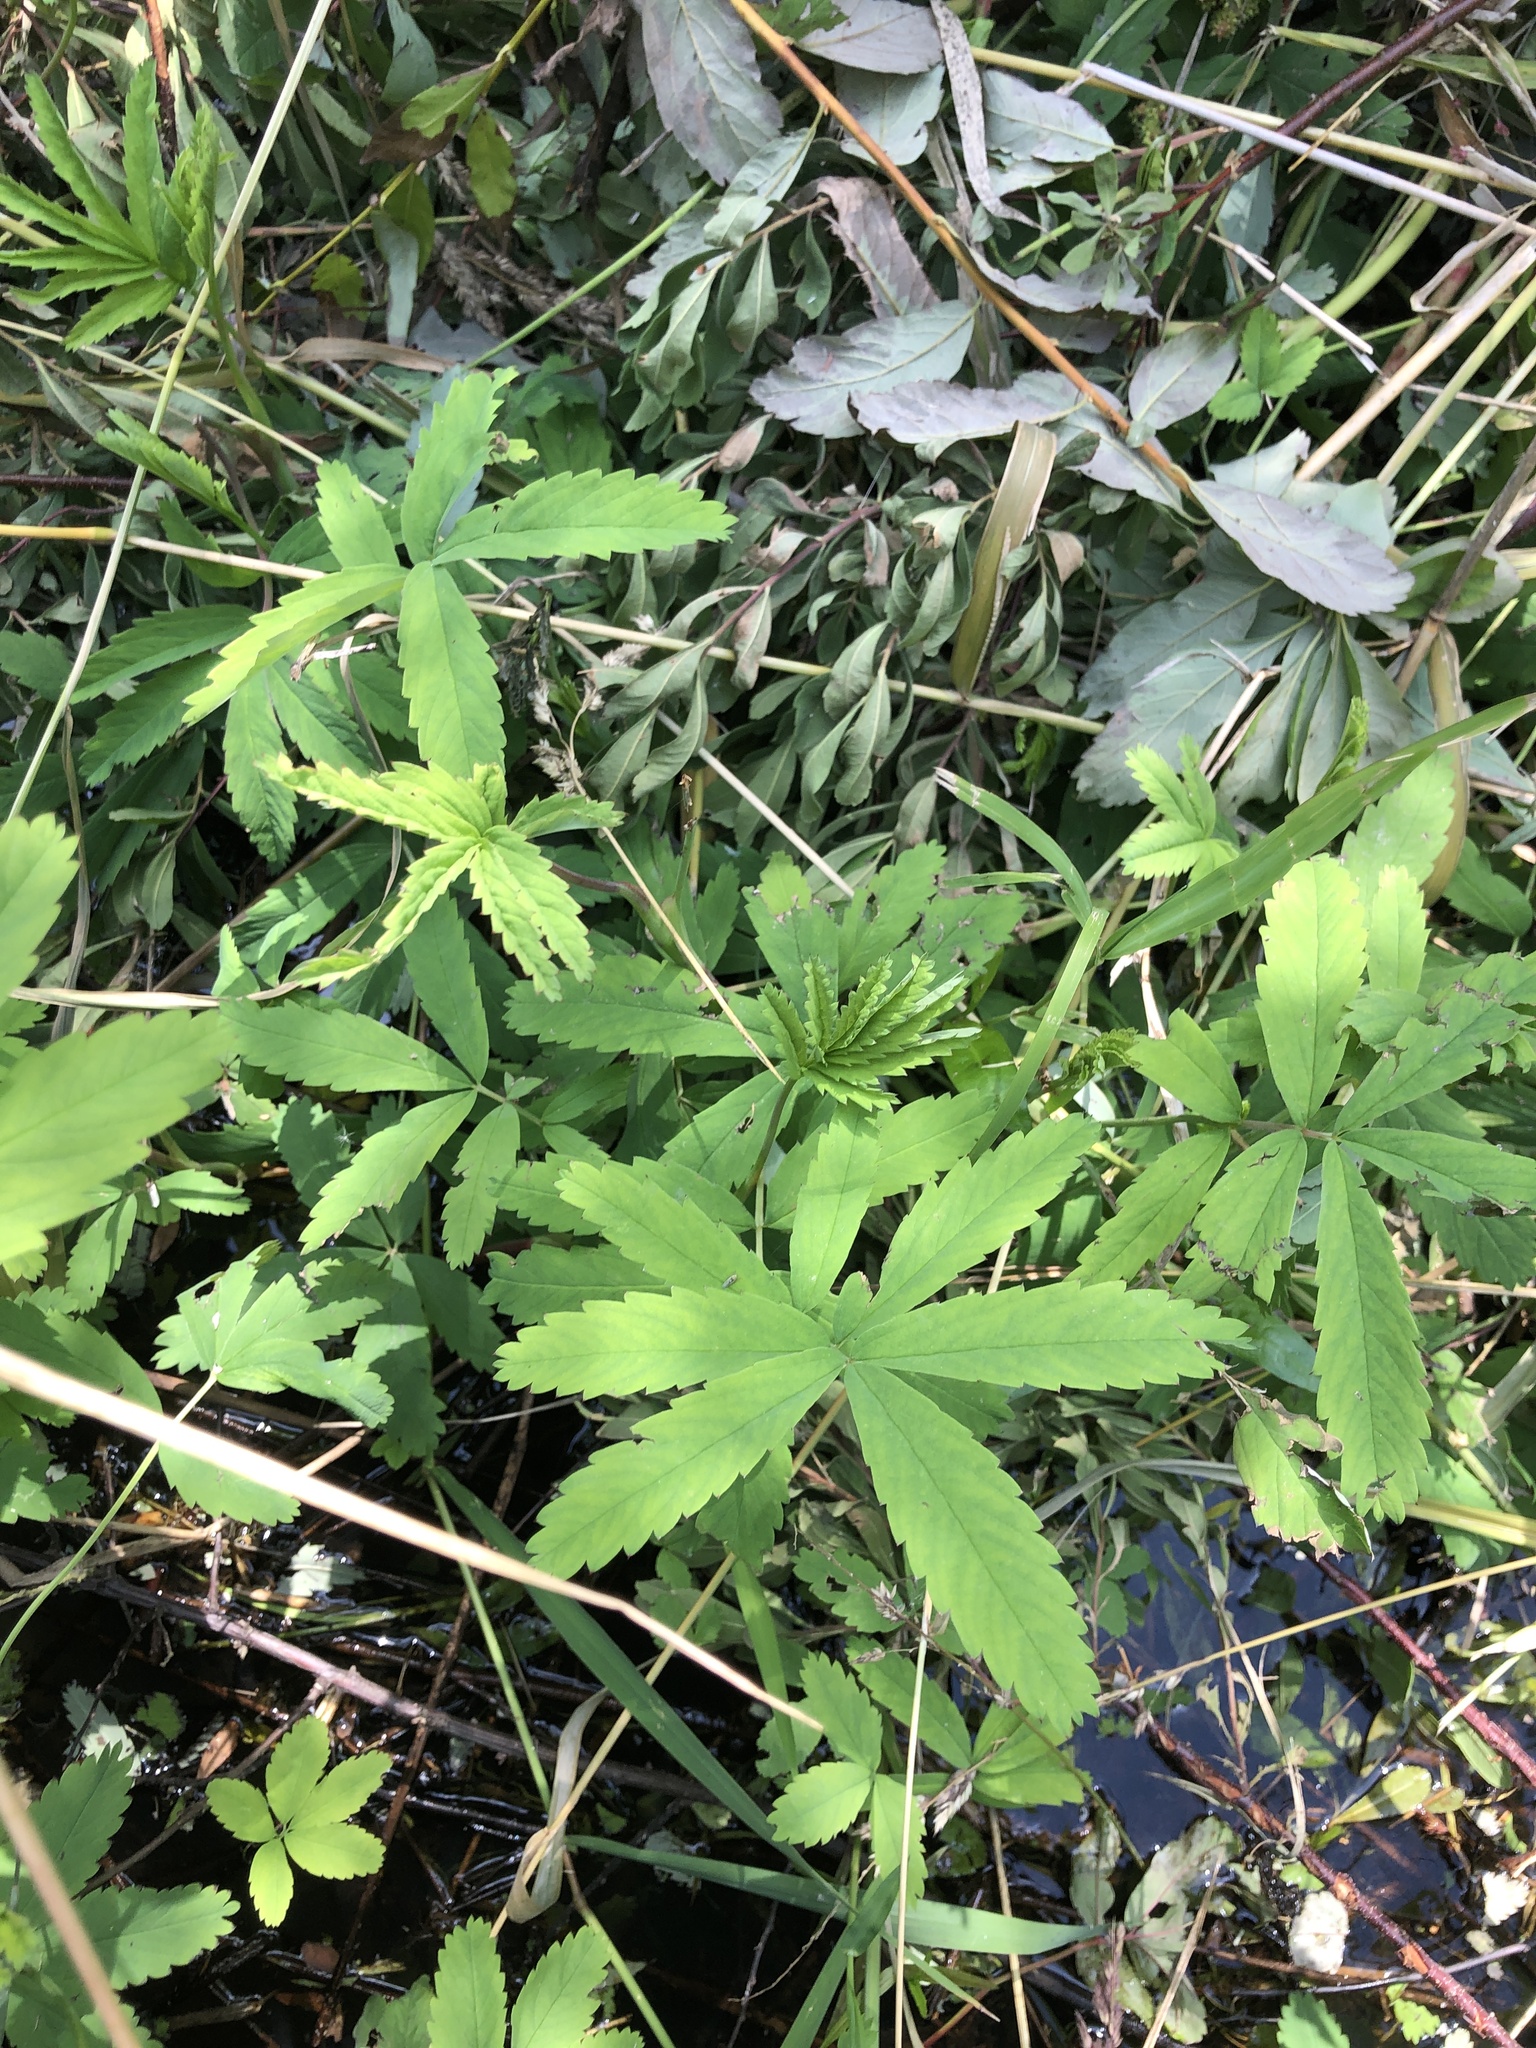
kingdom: Plantae
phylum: Tracheophyta
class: Magnoliopsida
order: Rosales
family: Rosaceae
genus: Comarum
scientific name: Comarum palustre
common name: Marsh cinquefoil
